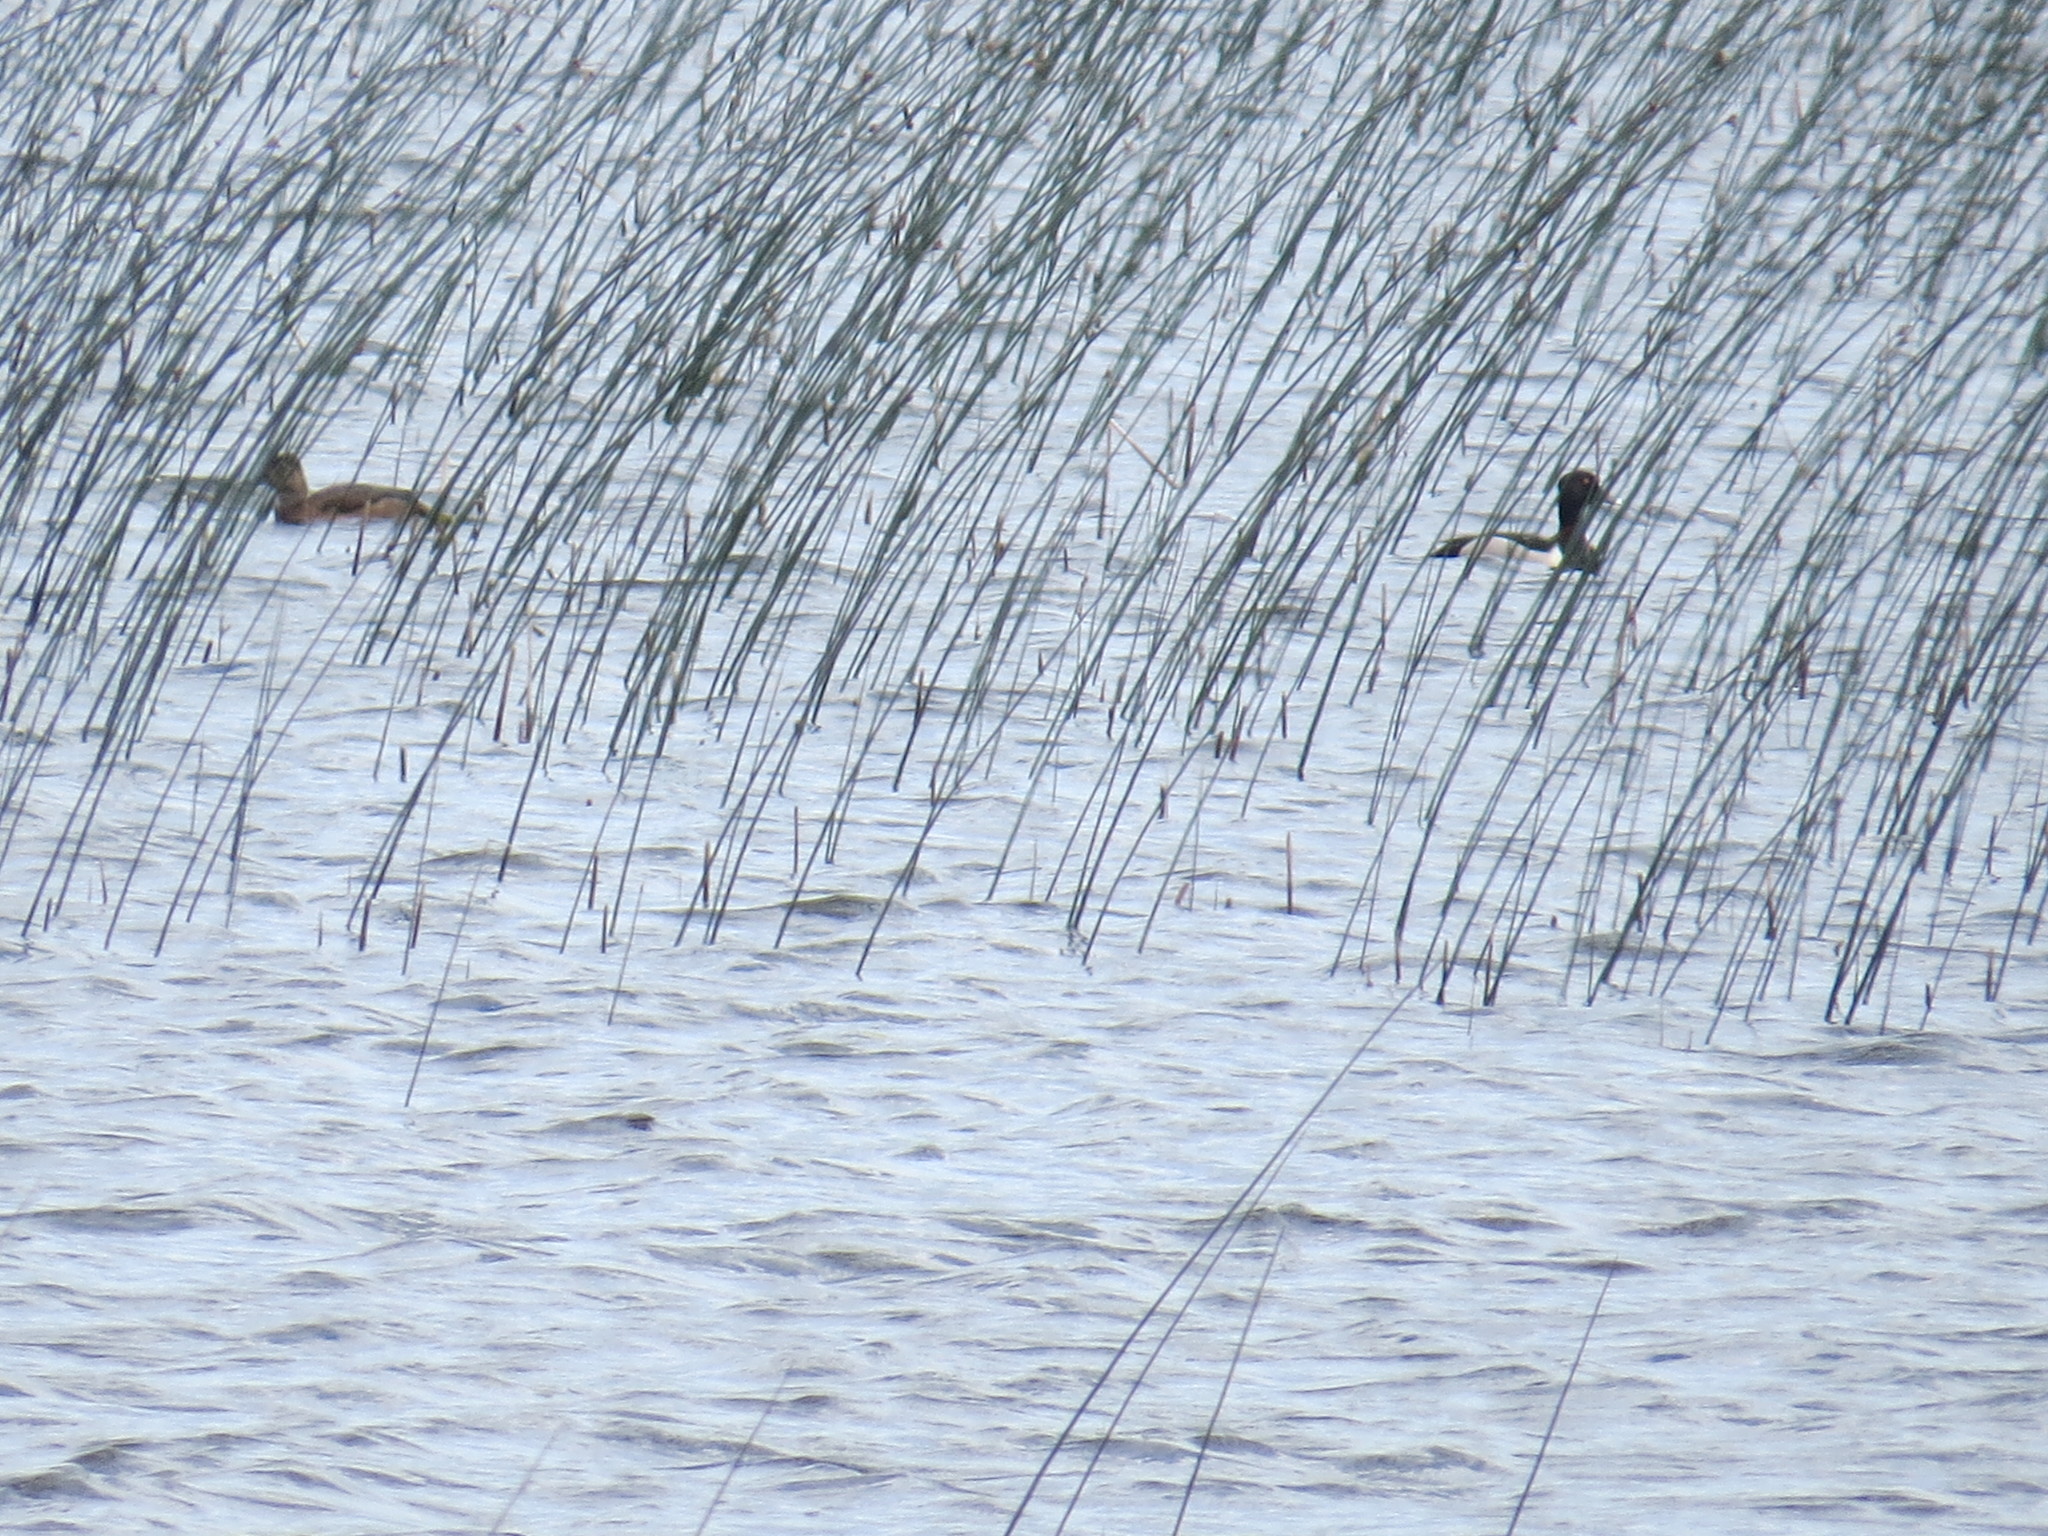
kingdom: Animalia
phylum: Chordata
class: Aves
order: Anseriformes
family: Anatidae
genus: Aythya
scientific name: Aythya collaris
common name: Ring-necked duck
